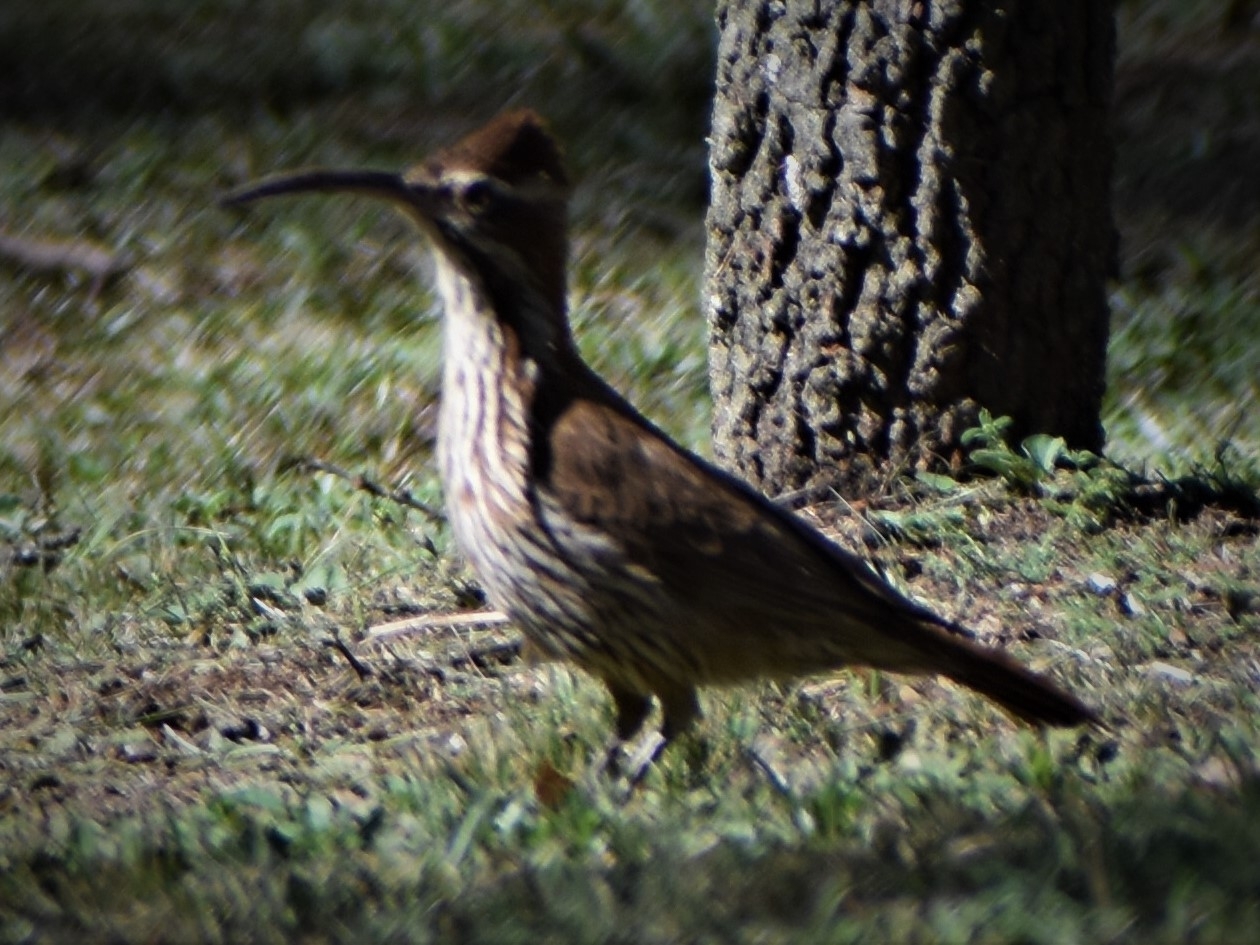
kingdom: Animalia
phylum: Chordata
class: Aves
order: Passeriformes
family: Furnariidae
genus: Drymornis
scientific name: Drymornis bridgesii
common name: Scimitar-billed woodcreeper
